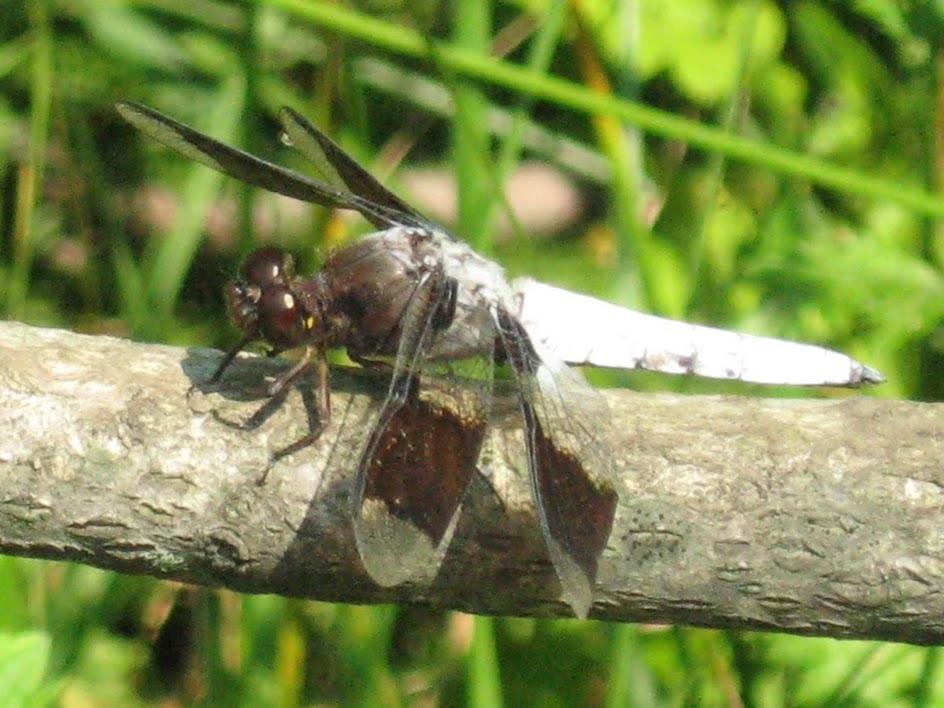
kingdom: Animalia
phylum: Arthropoda
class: Insecta
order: Odonata
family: Libellulidae
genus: Plathemis
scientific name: Plathemis lydia
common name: Common whitetail
